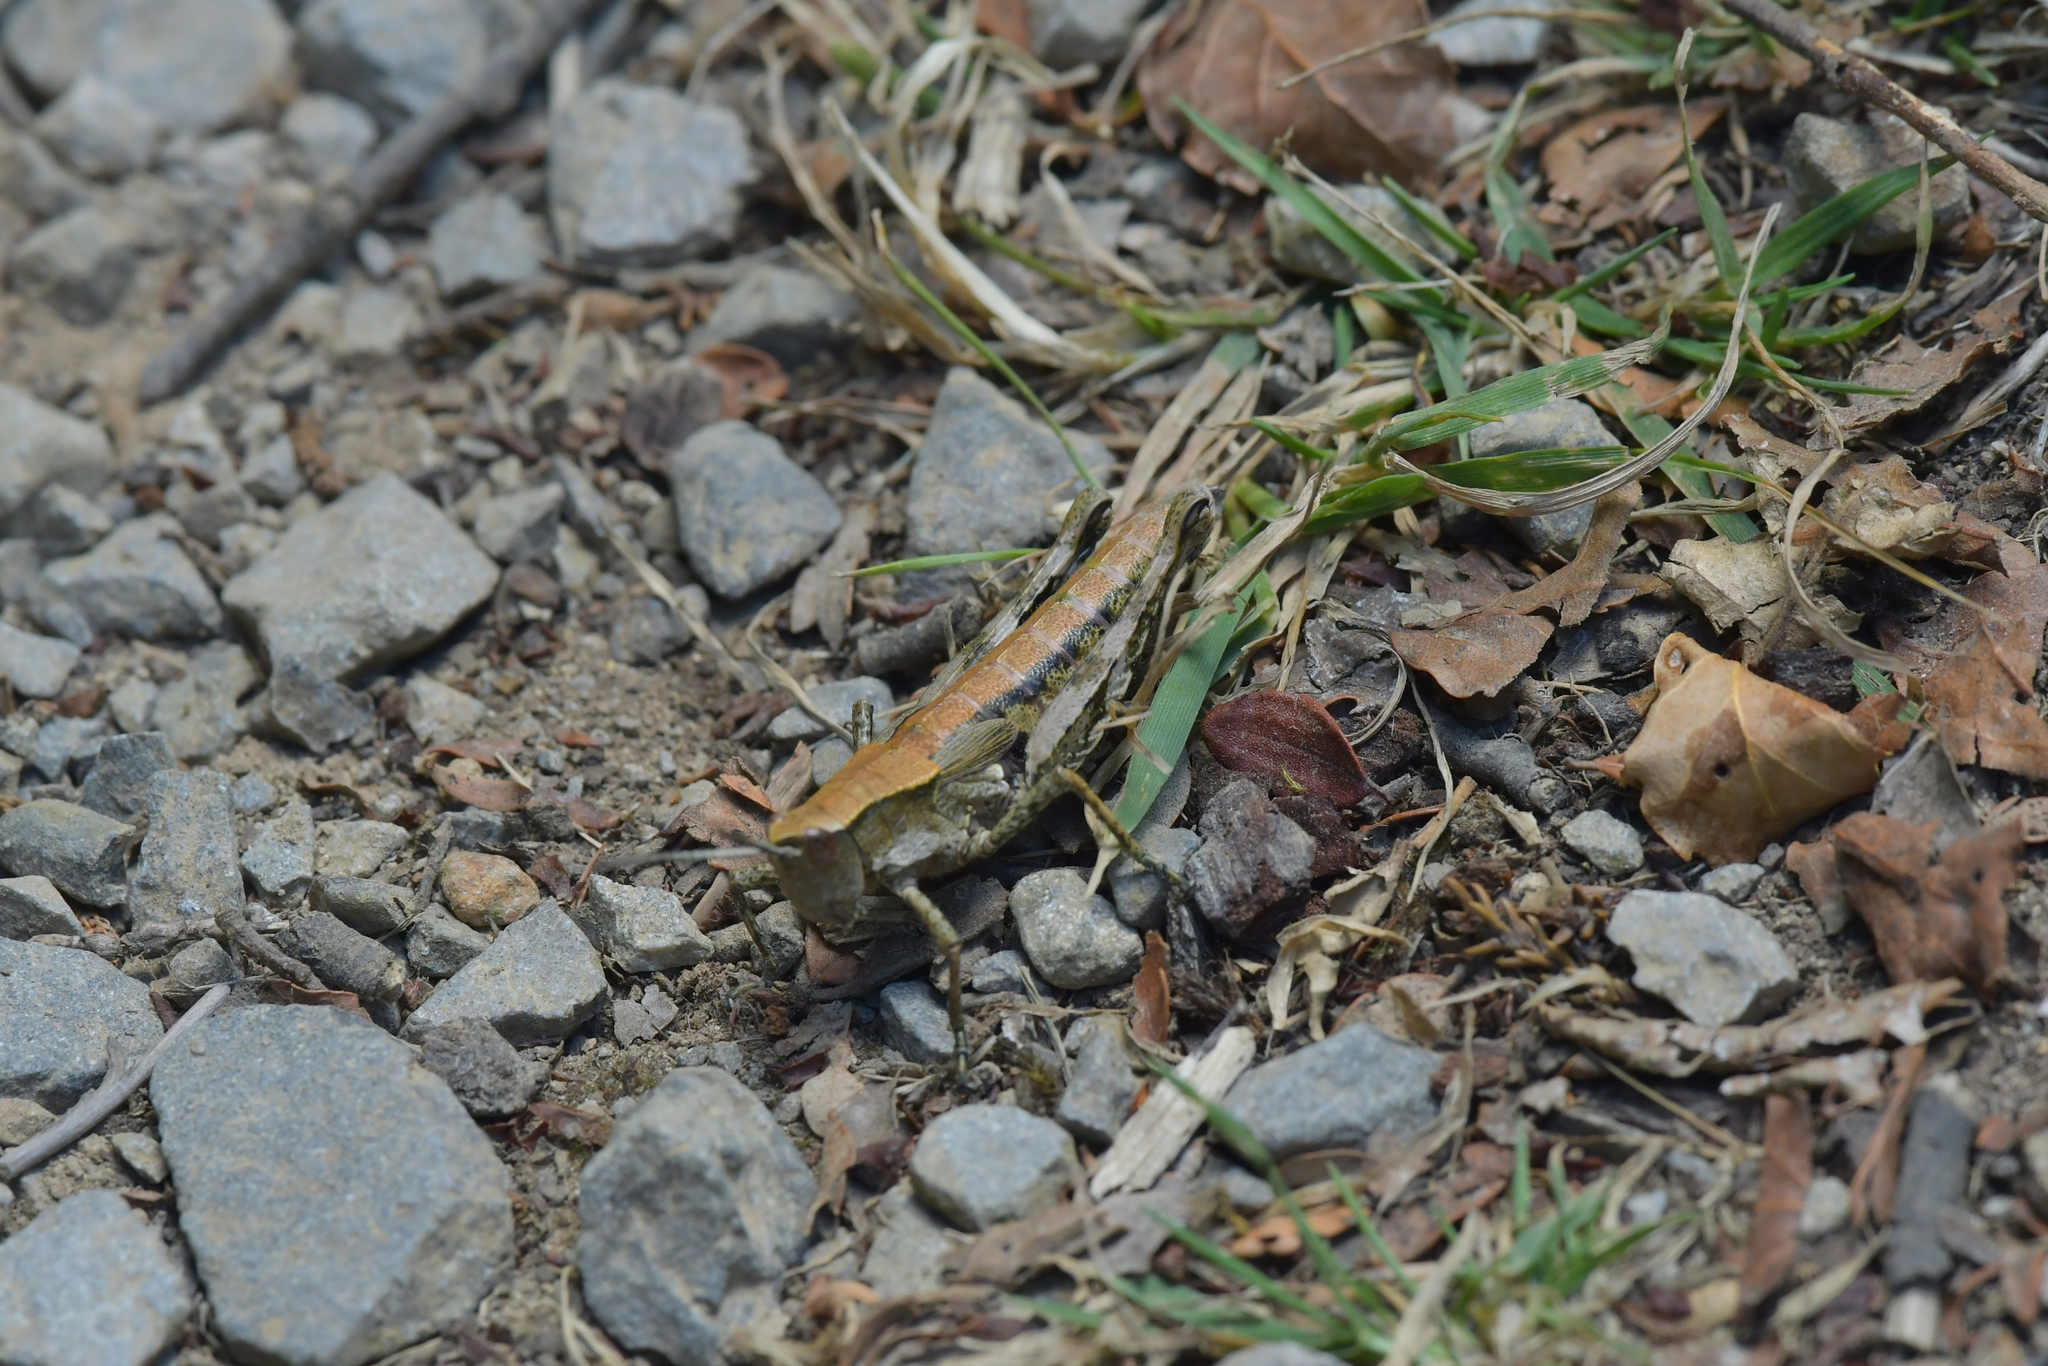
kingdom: Animalia
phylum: Arthropoda
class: Insecta
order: Orthoptera
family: Acrididae
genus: Sigaus
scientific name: Sigaus piliferus
